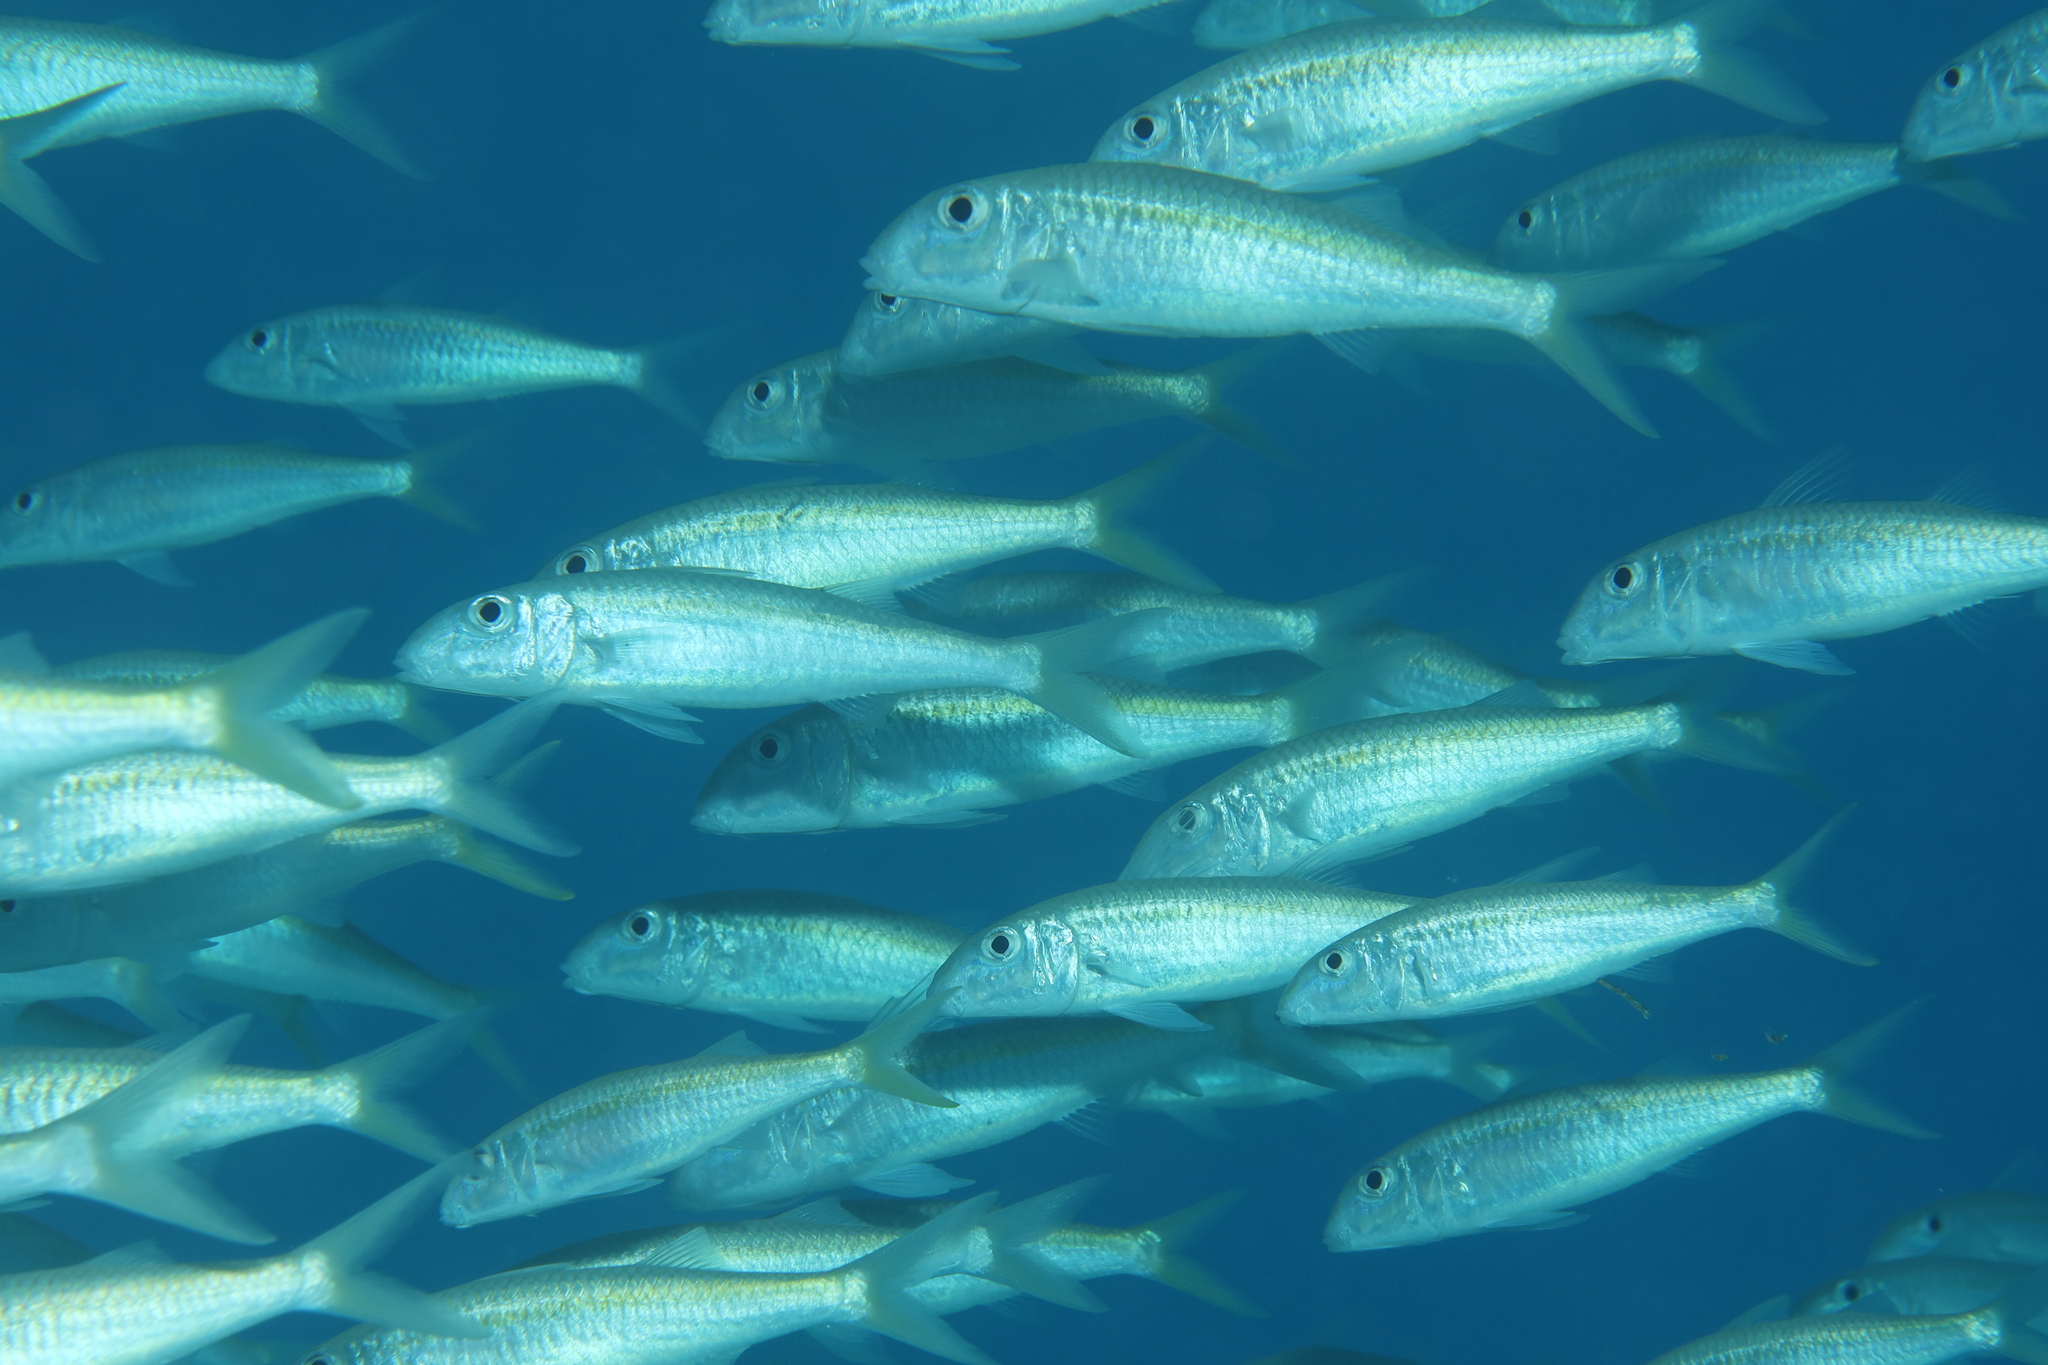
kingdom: Animalia
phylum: Chordata
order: Perciformes
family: Mullidae
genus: Mulloidichthys
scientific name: Mulloidichthys flavolineatus
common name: Yellowstripe goatfish
